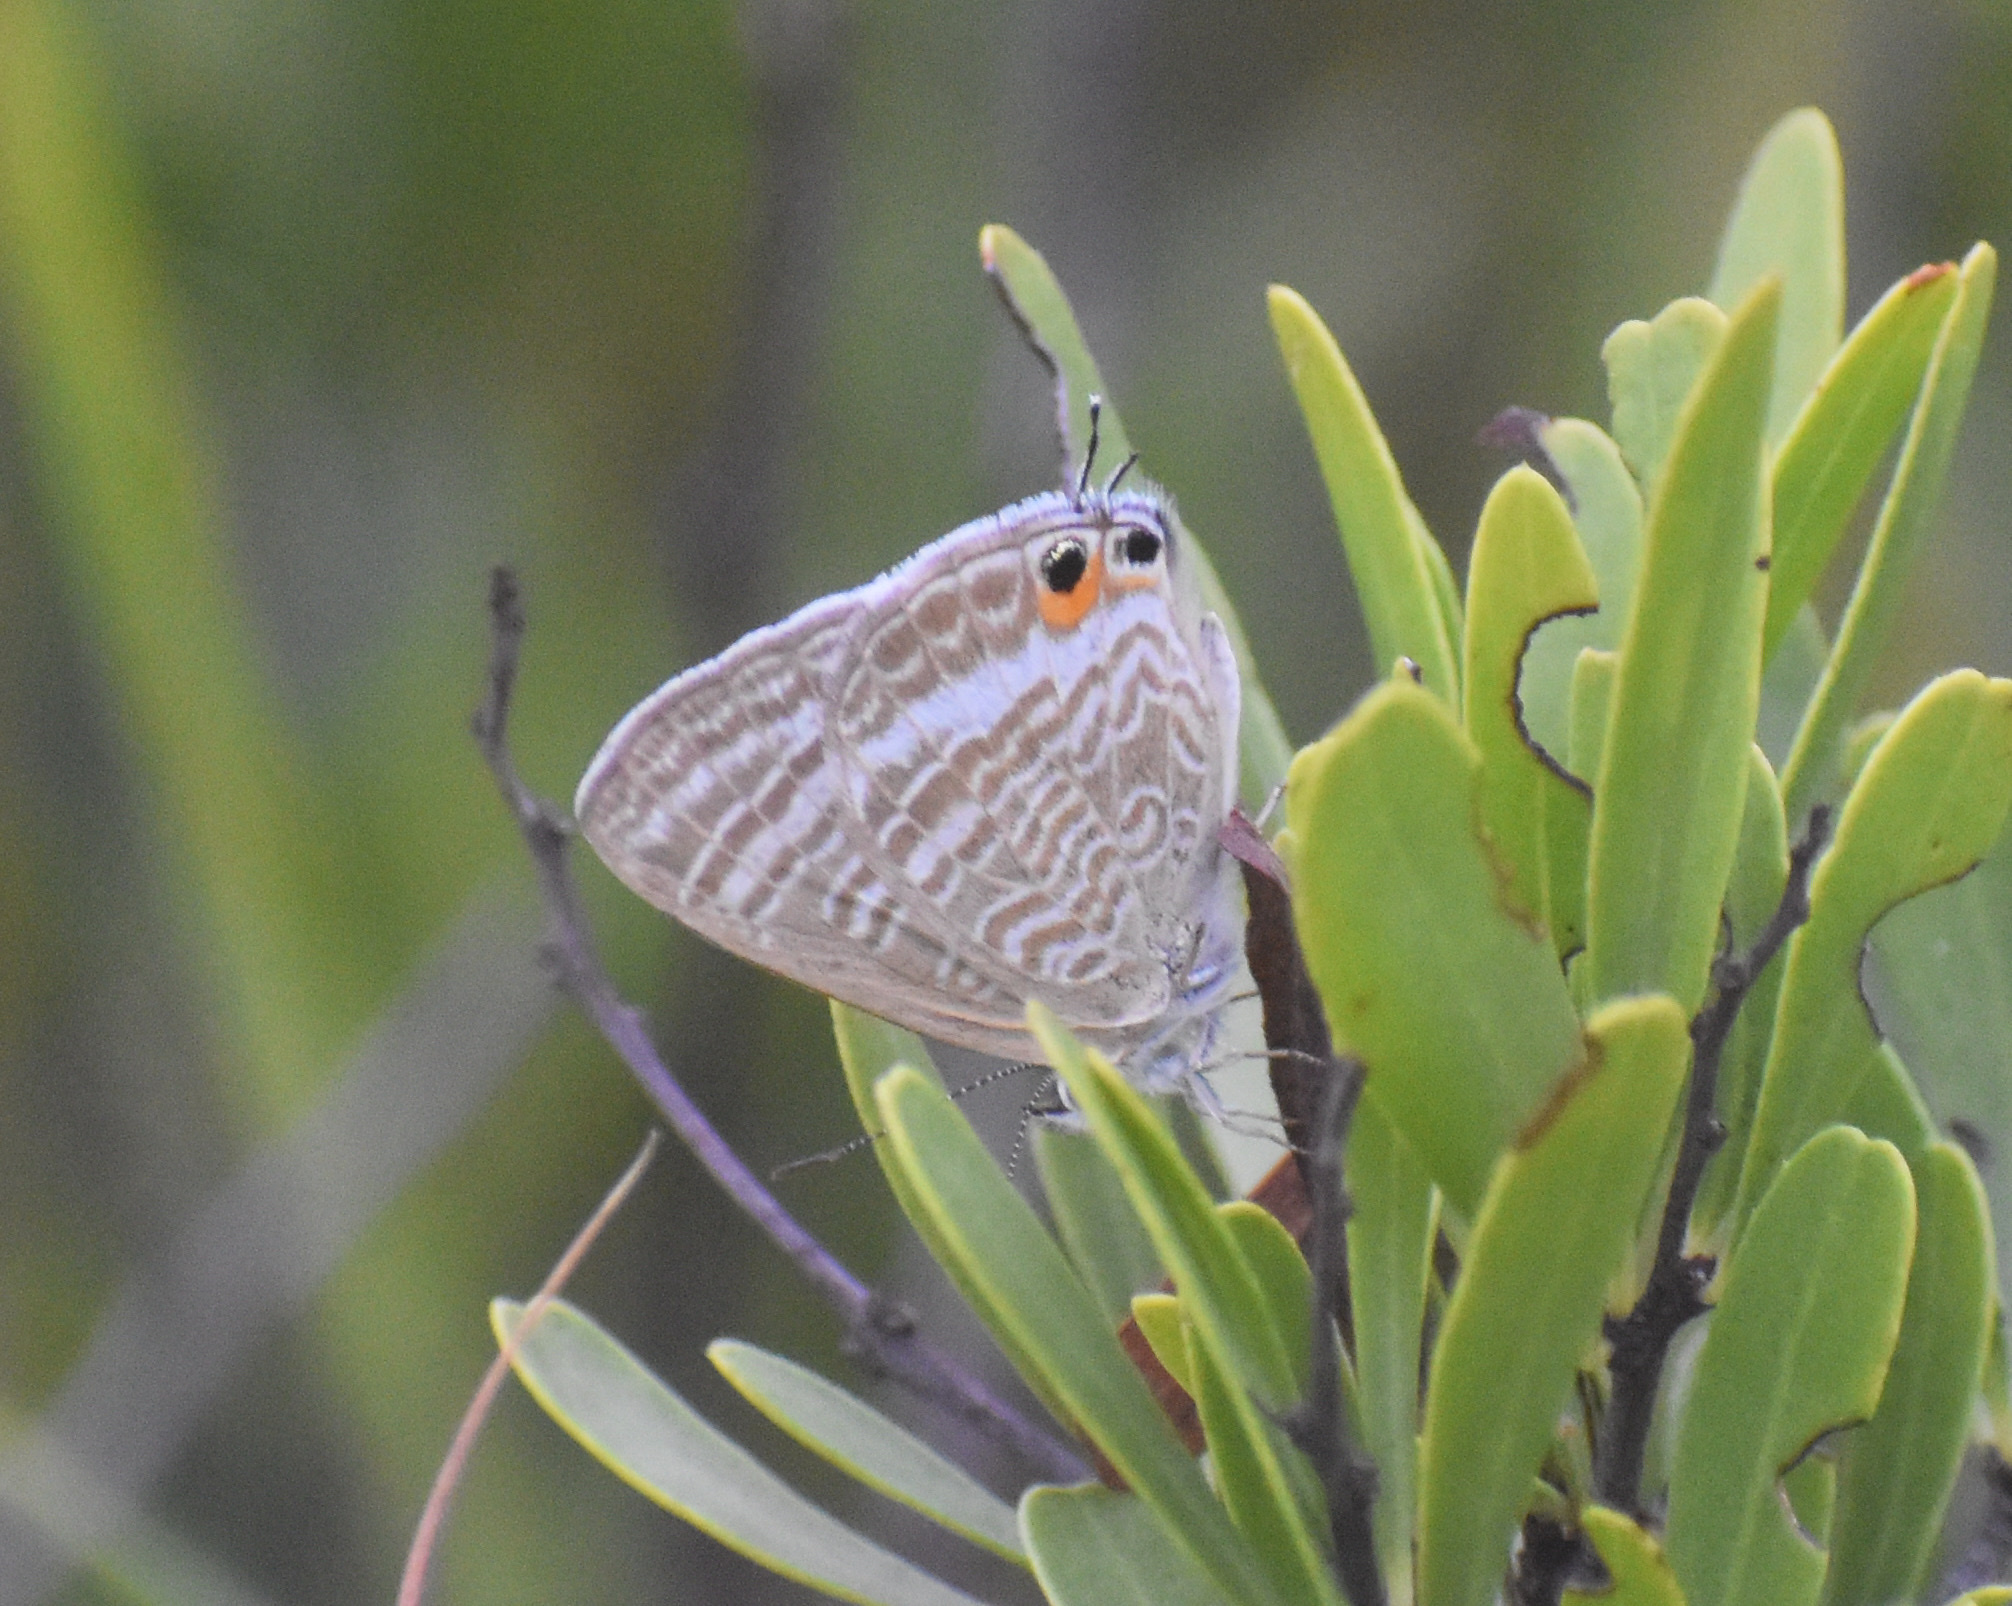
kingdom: Animalia
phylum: Arthropoda
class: Insecta
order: Lepidoptera
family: Lycaenidae
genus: Lampides
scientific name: Lampides boeticus
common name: Long-tailed blue
